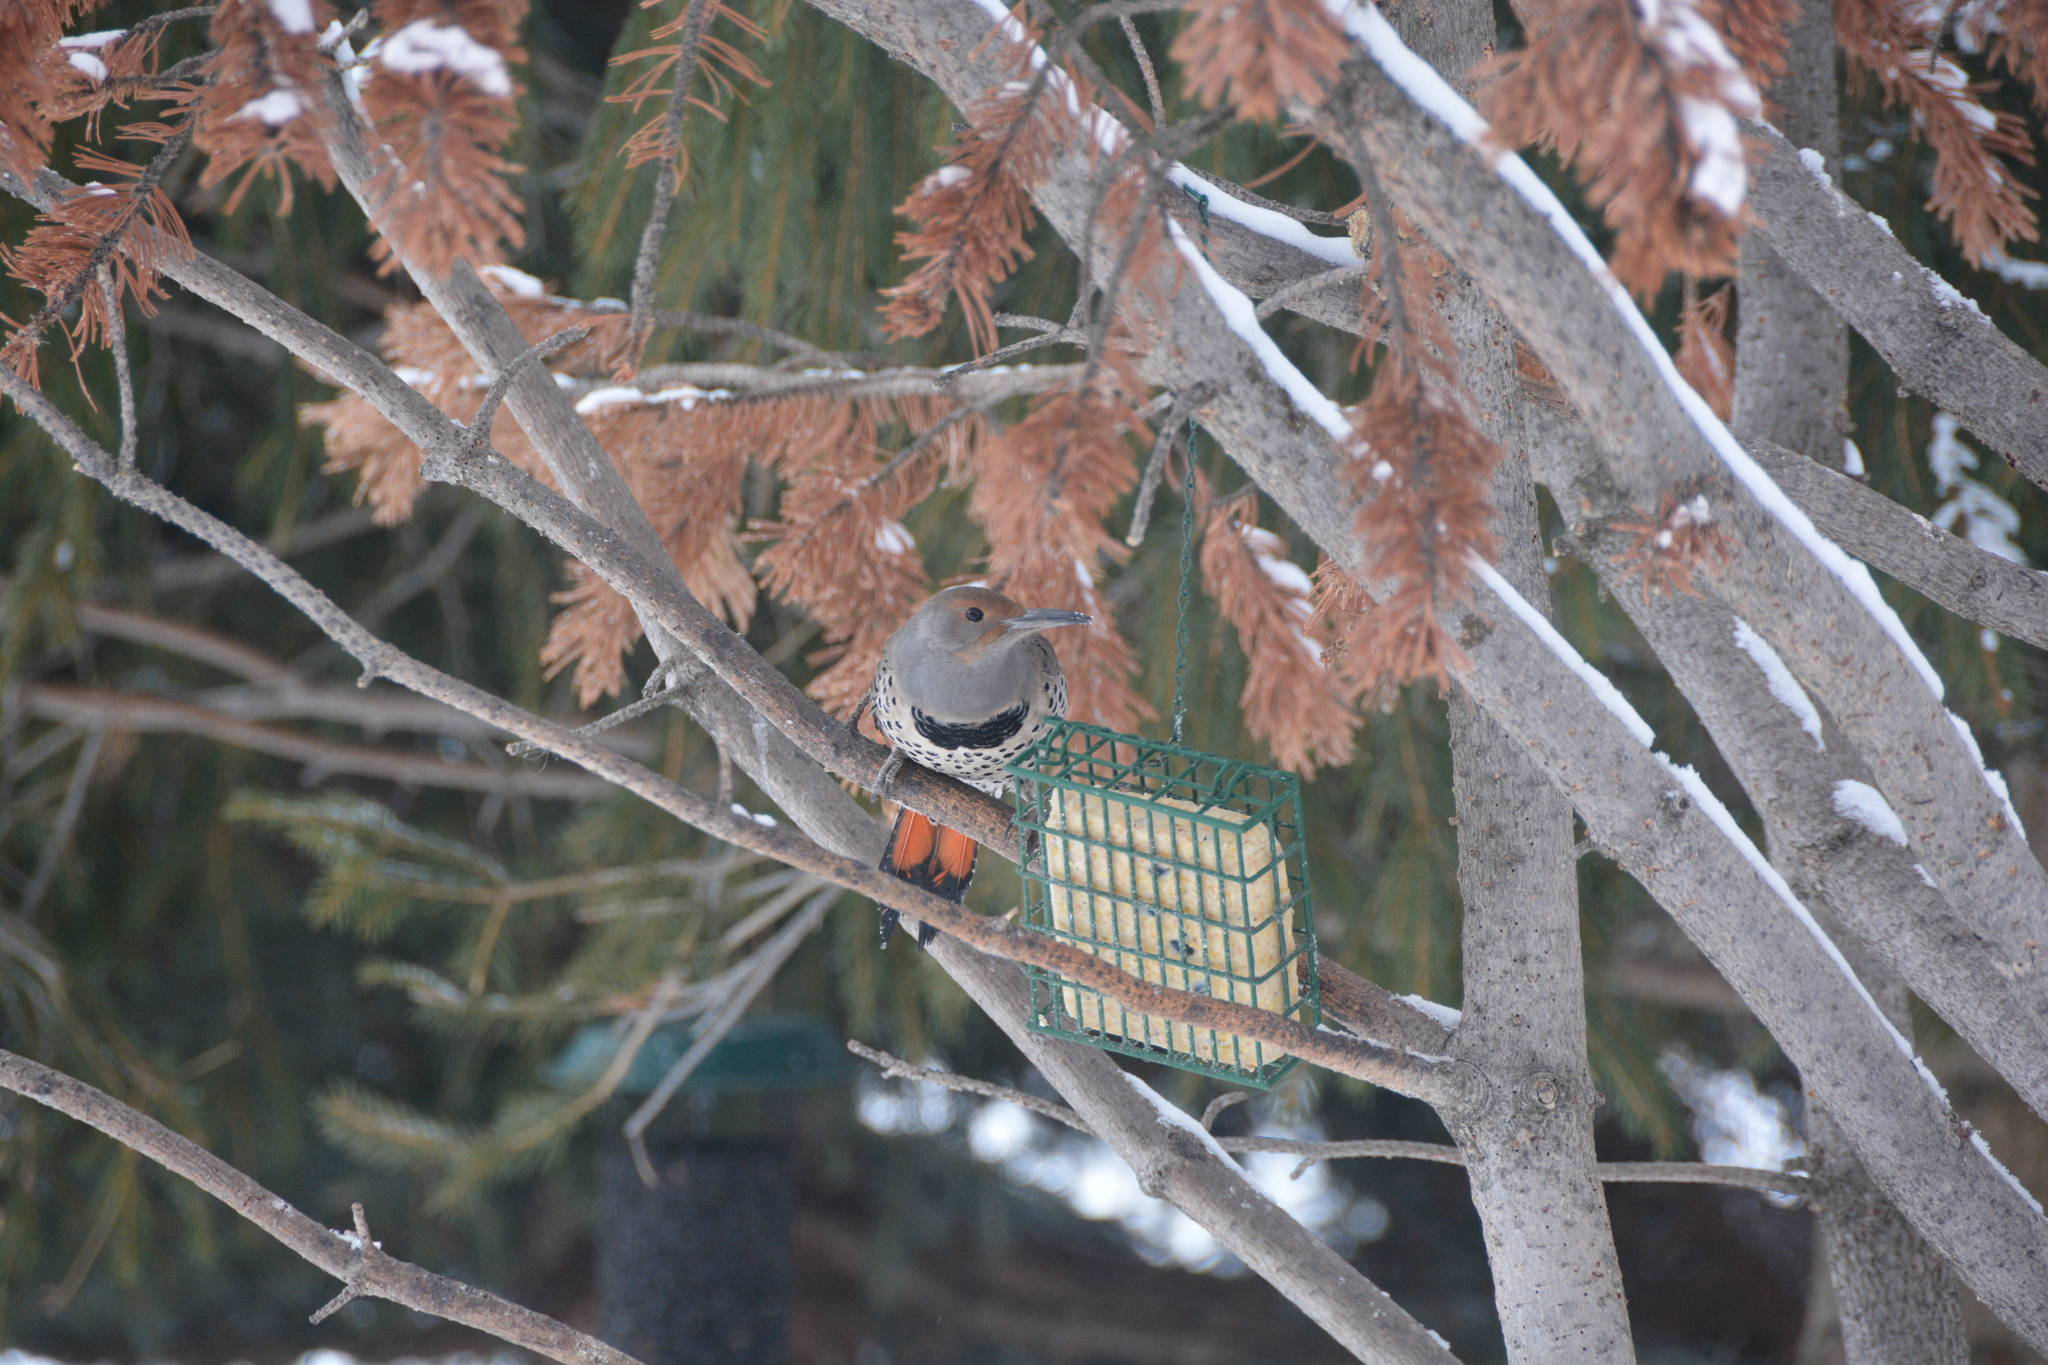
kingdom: Animalia
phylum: Chordata
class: Aves
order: Piciformes
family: Picidae
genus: Colaptes
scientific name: Colaptes auratus
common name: Northern flicker
